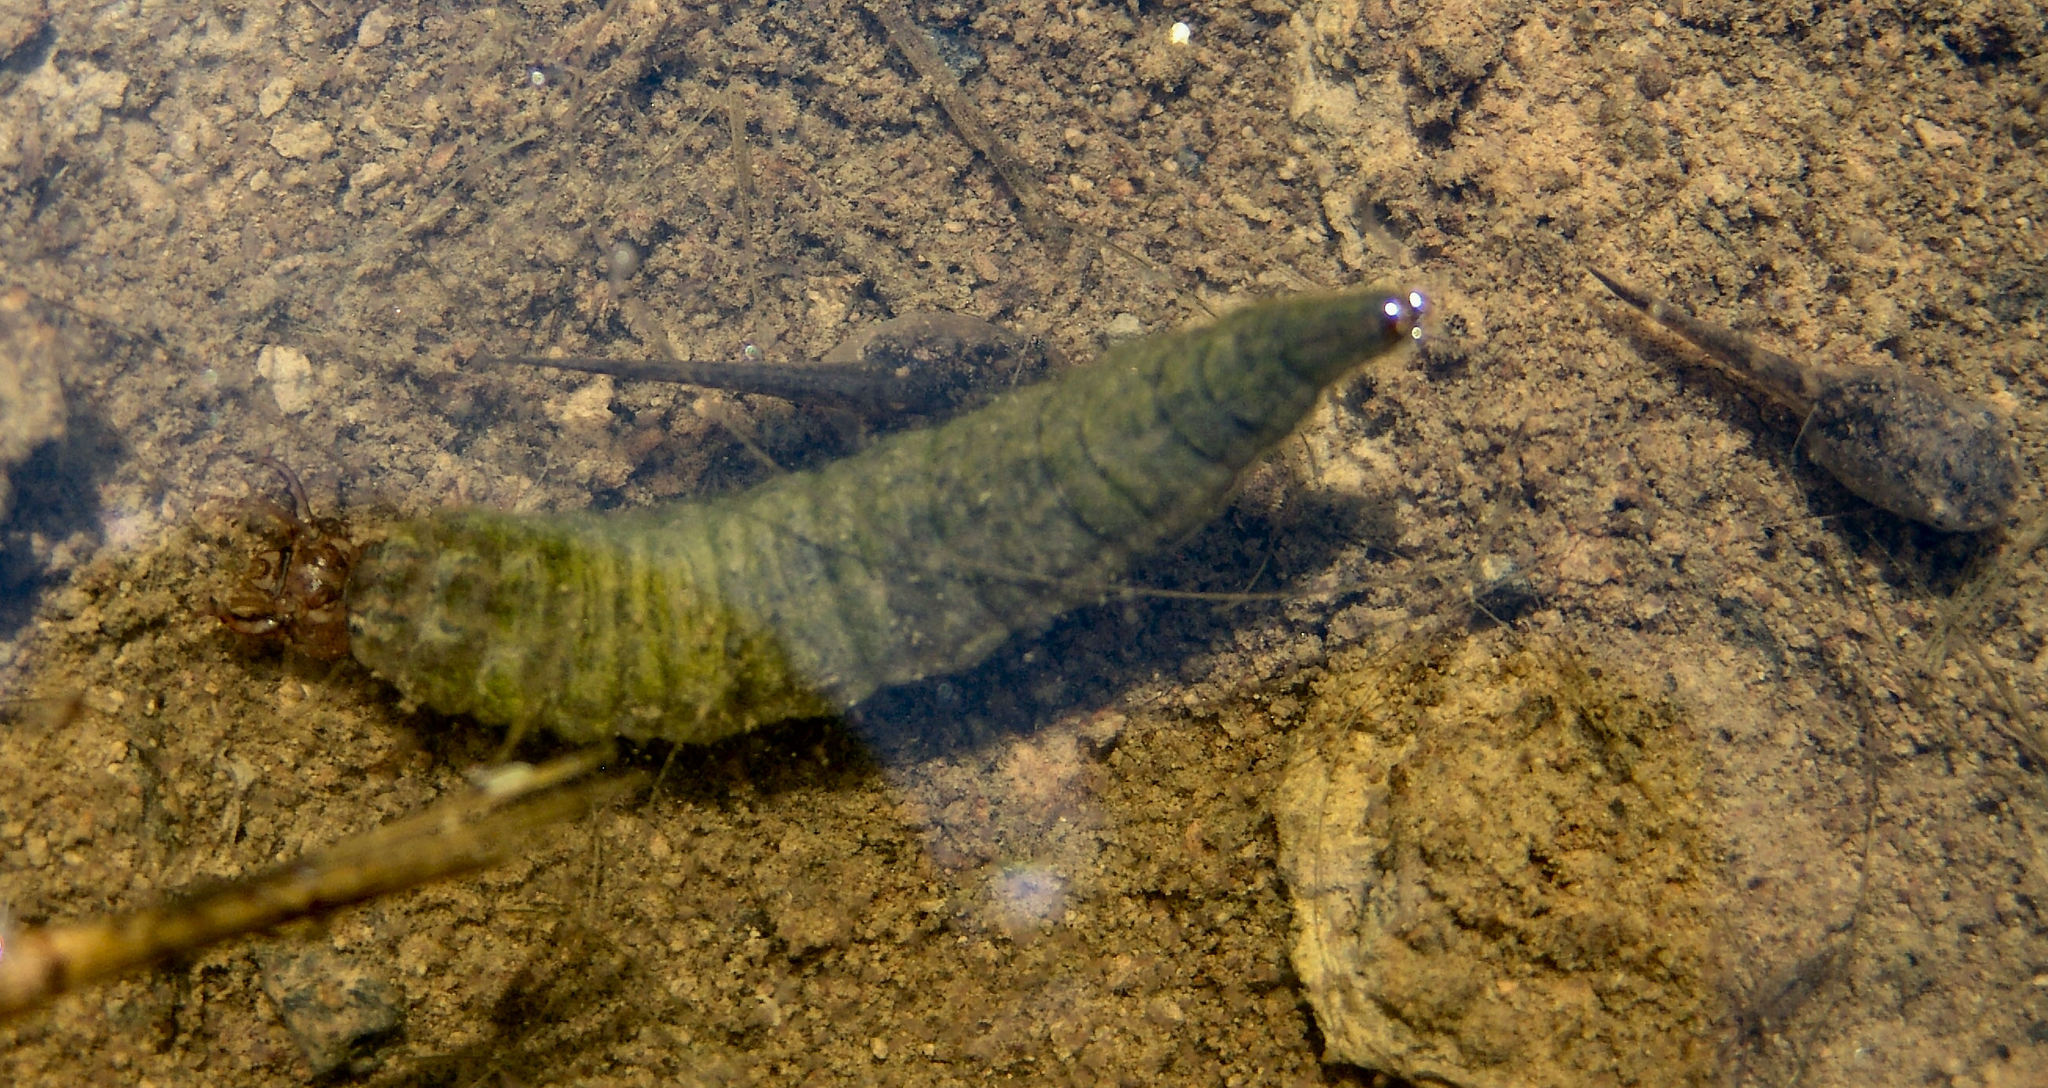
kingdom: Animalia
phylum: Arthropoda
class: Insecta
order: Coleoptera
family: Hydrophilidae
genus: Hydrophilus
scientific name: Hydrophilus triangularis
